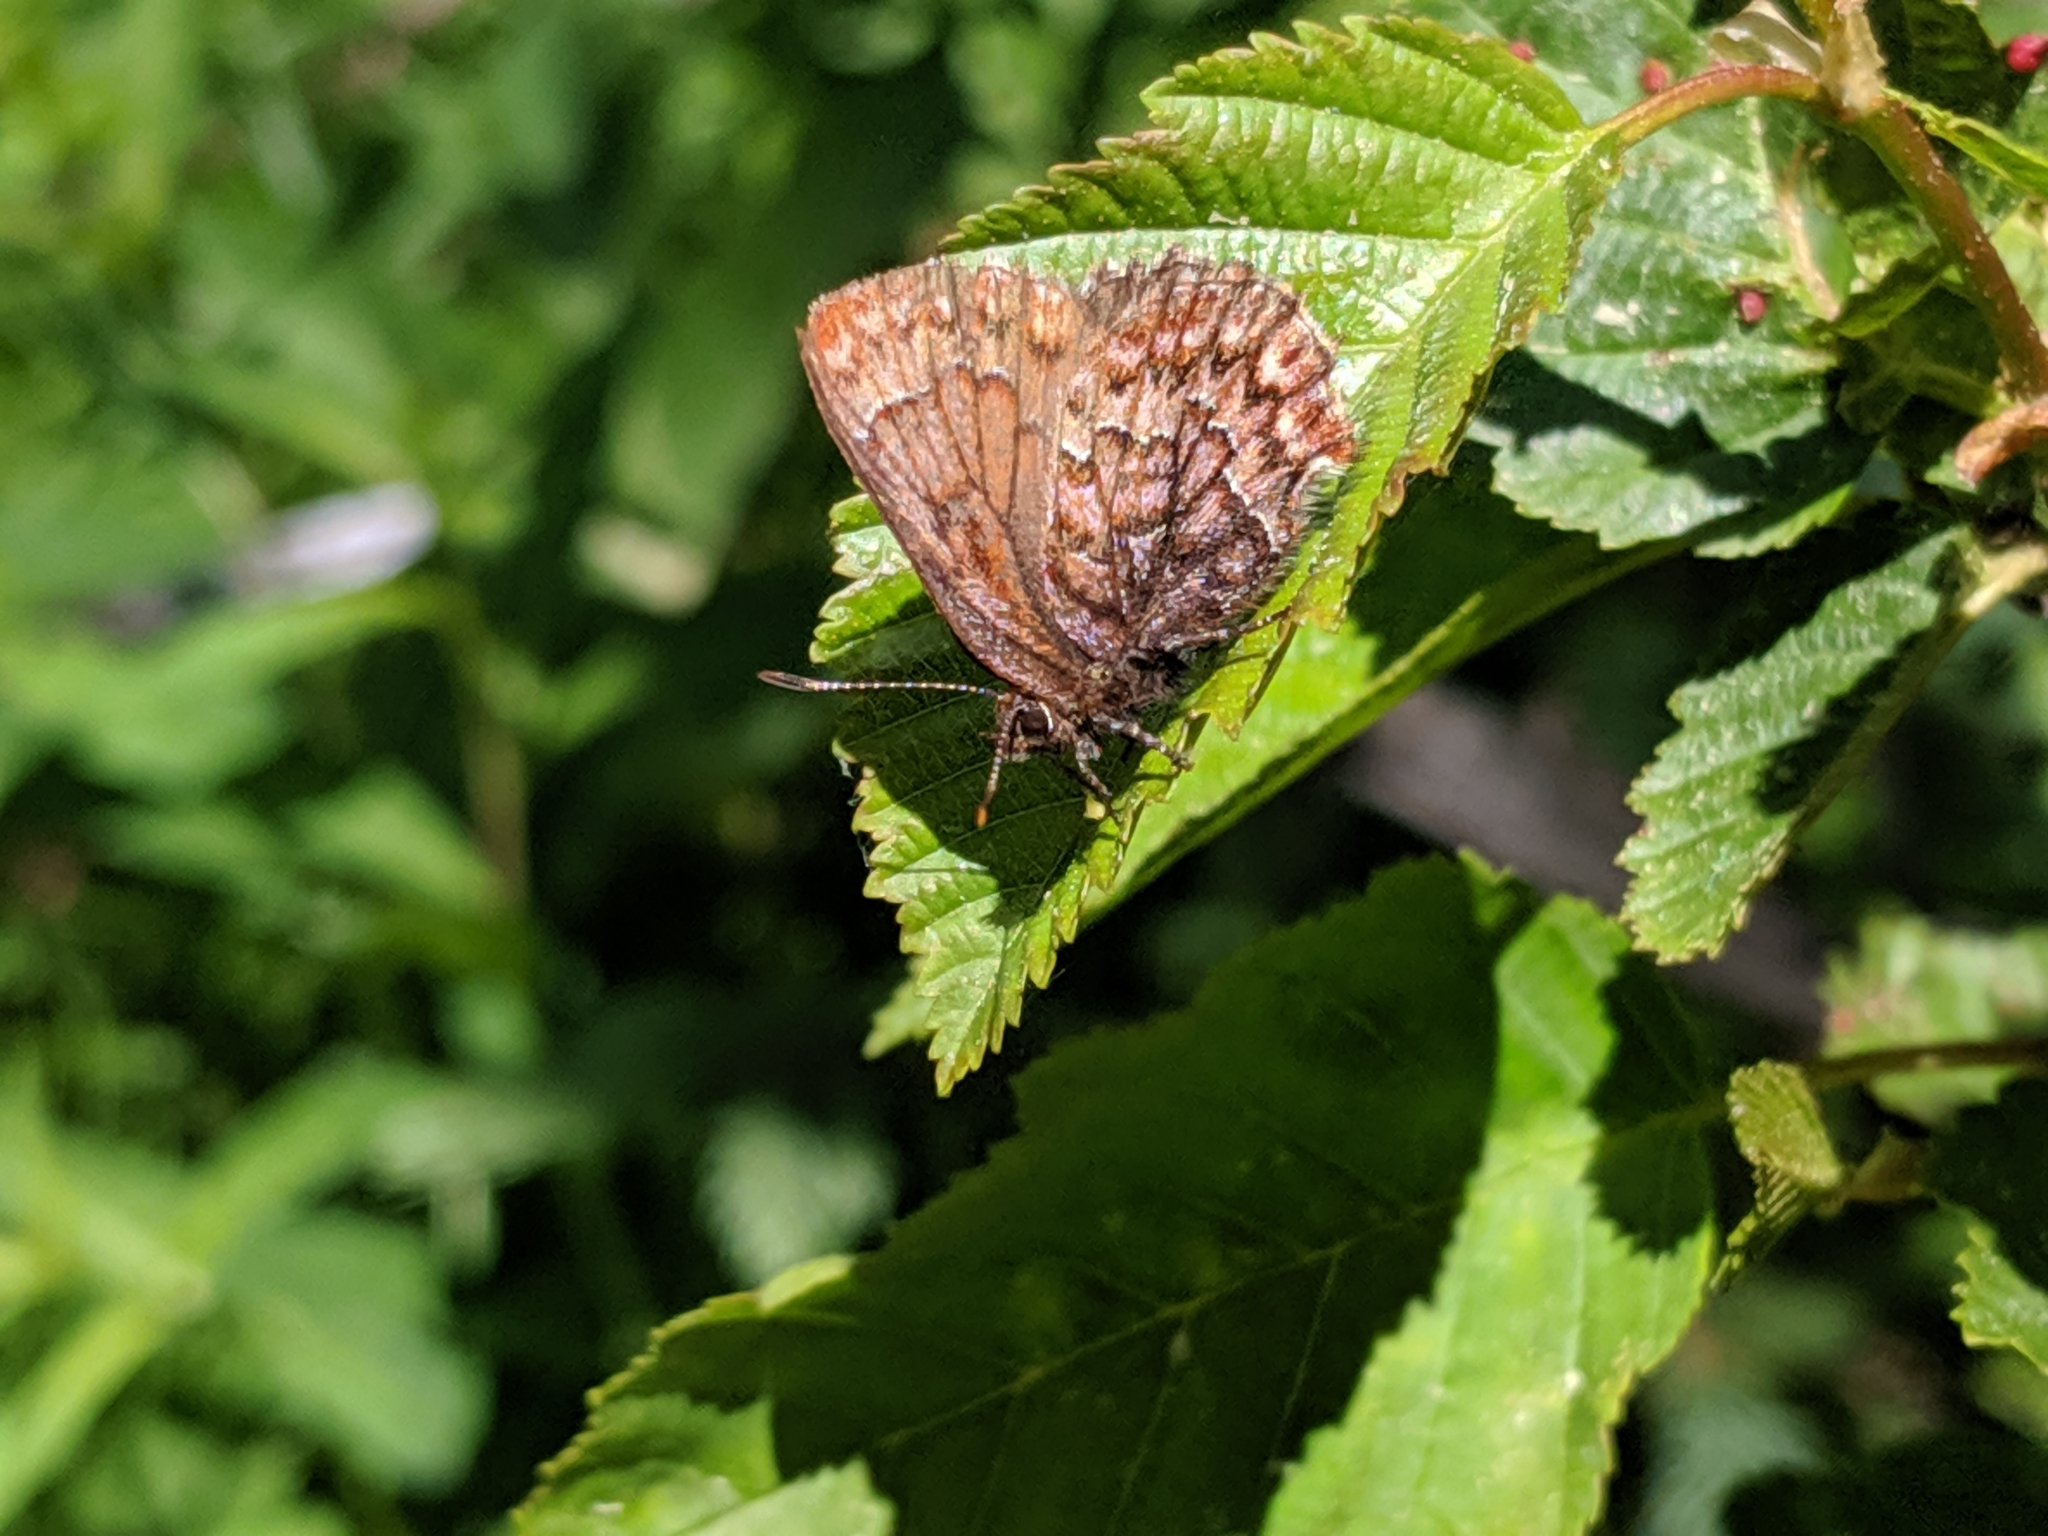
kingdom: Animalia
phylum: Arthropoda
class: Insecta
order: Lepidoptera
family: Lycaenidae
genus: Incisalia
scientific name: Incisalia eryphon
